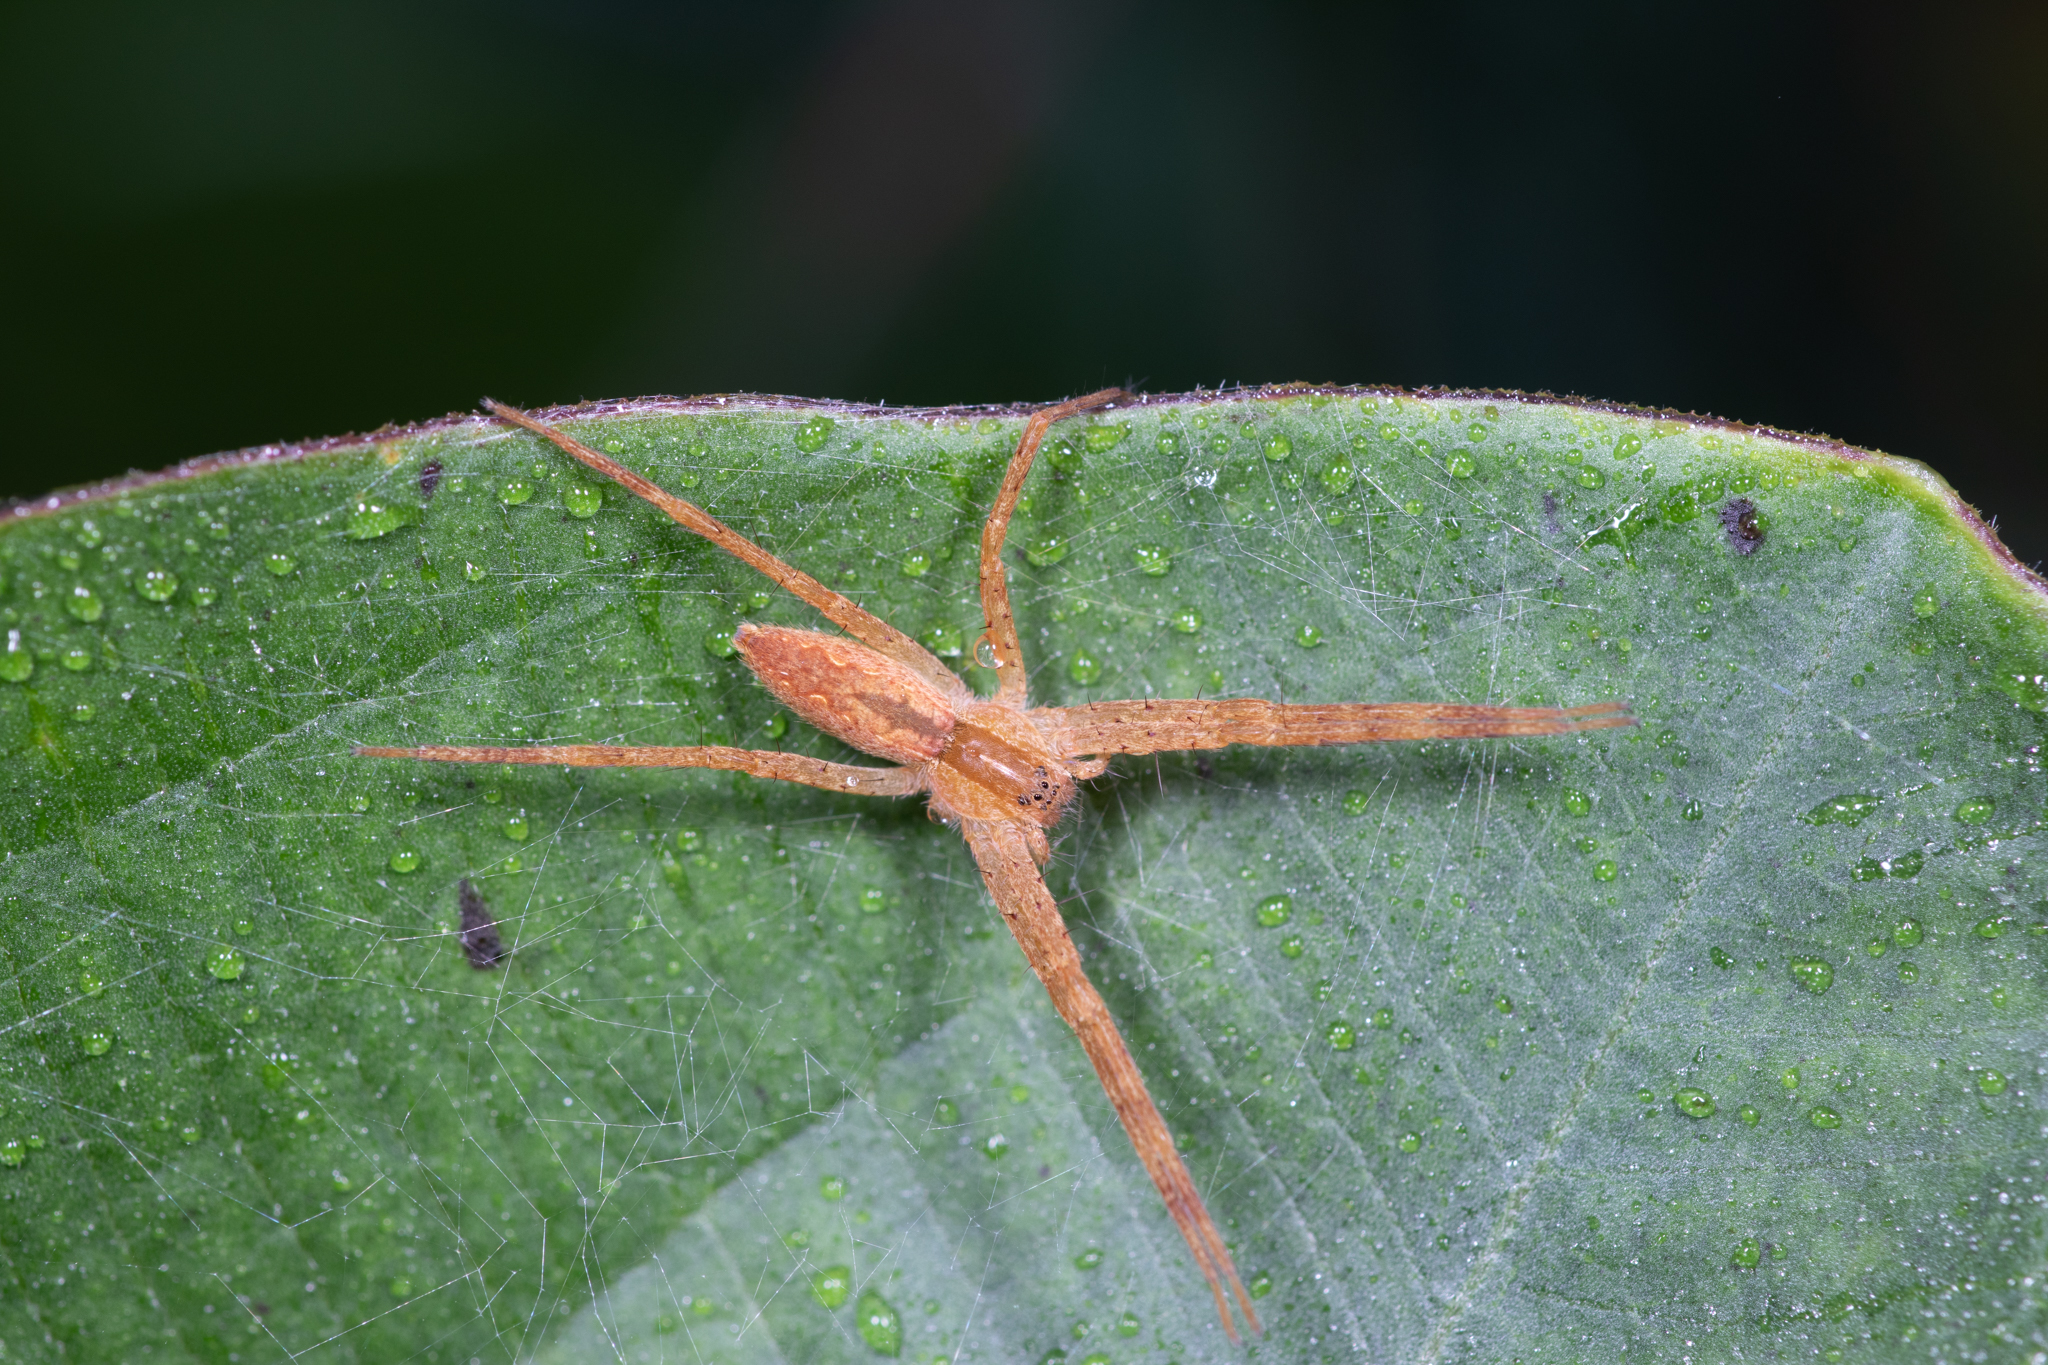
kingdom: Animalia
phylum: Arthropoda
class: Arachnida
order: Araneae
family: Pisauridae
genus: Pisaurina
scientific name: Pisaurina mira
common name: American nursery web spider
